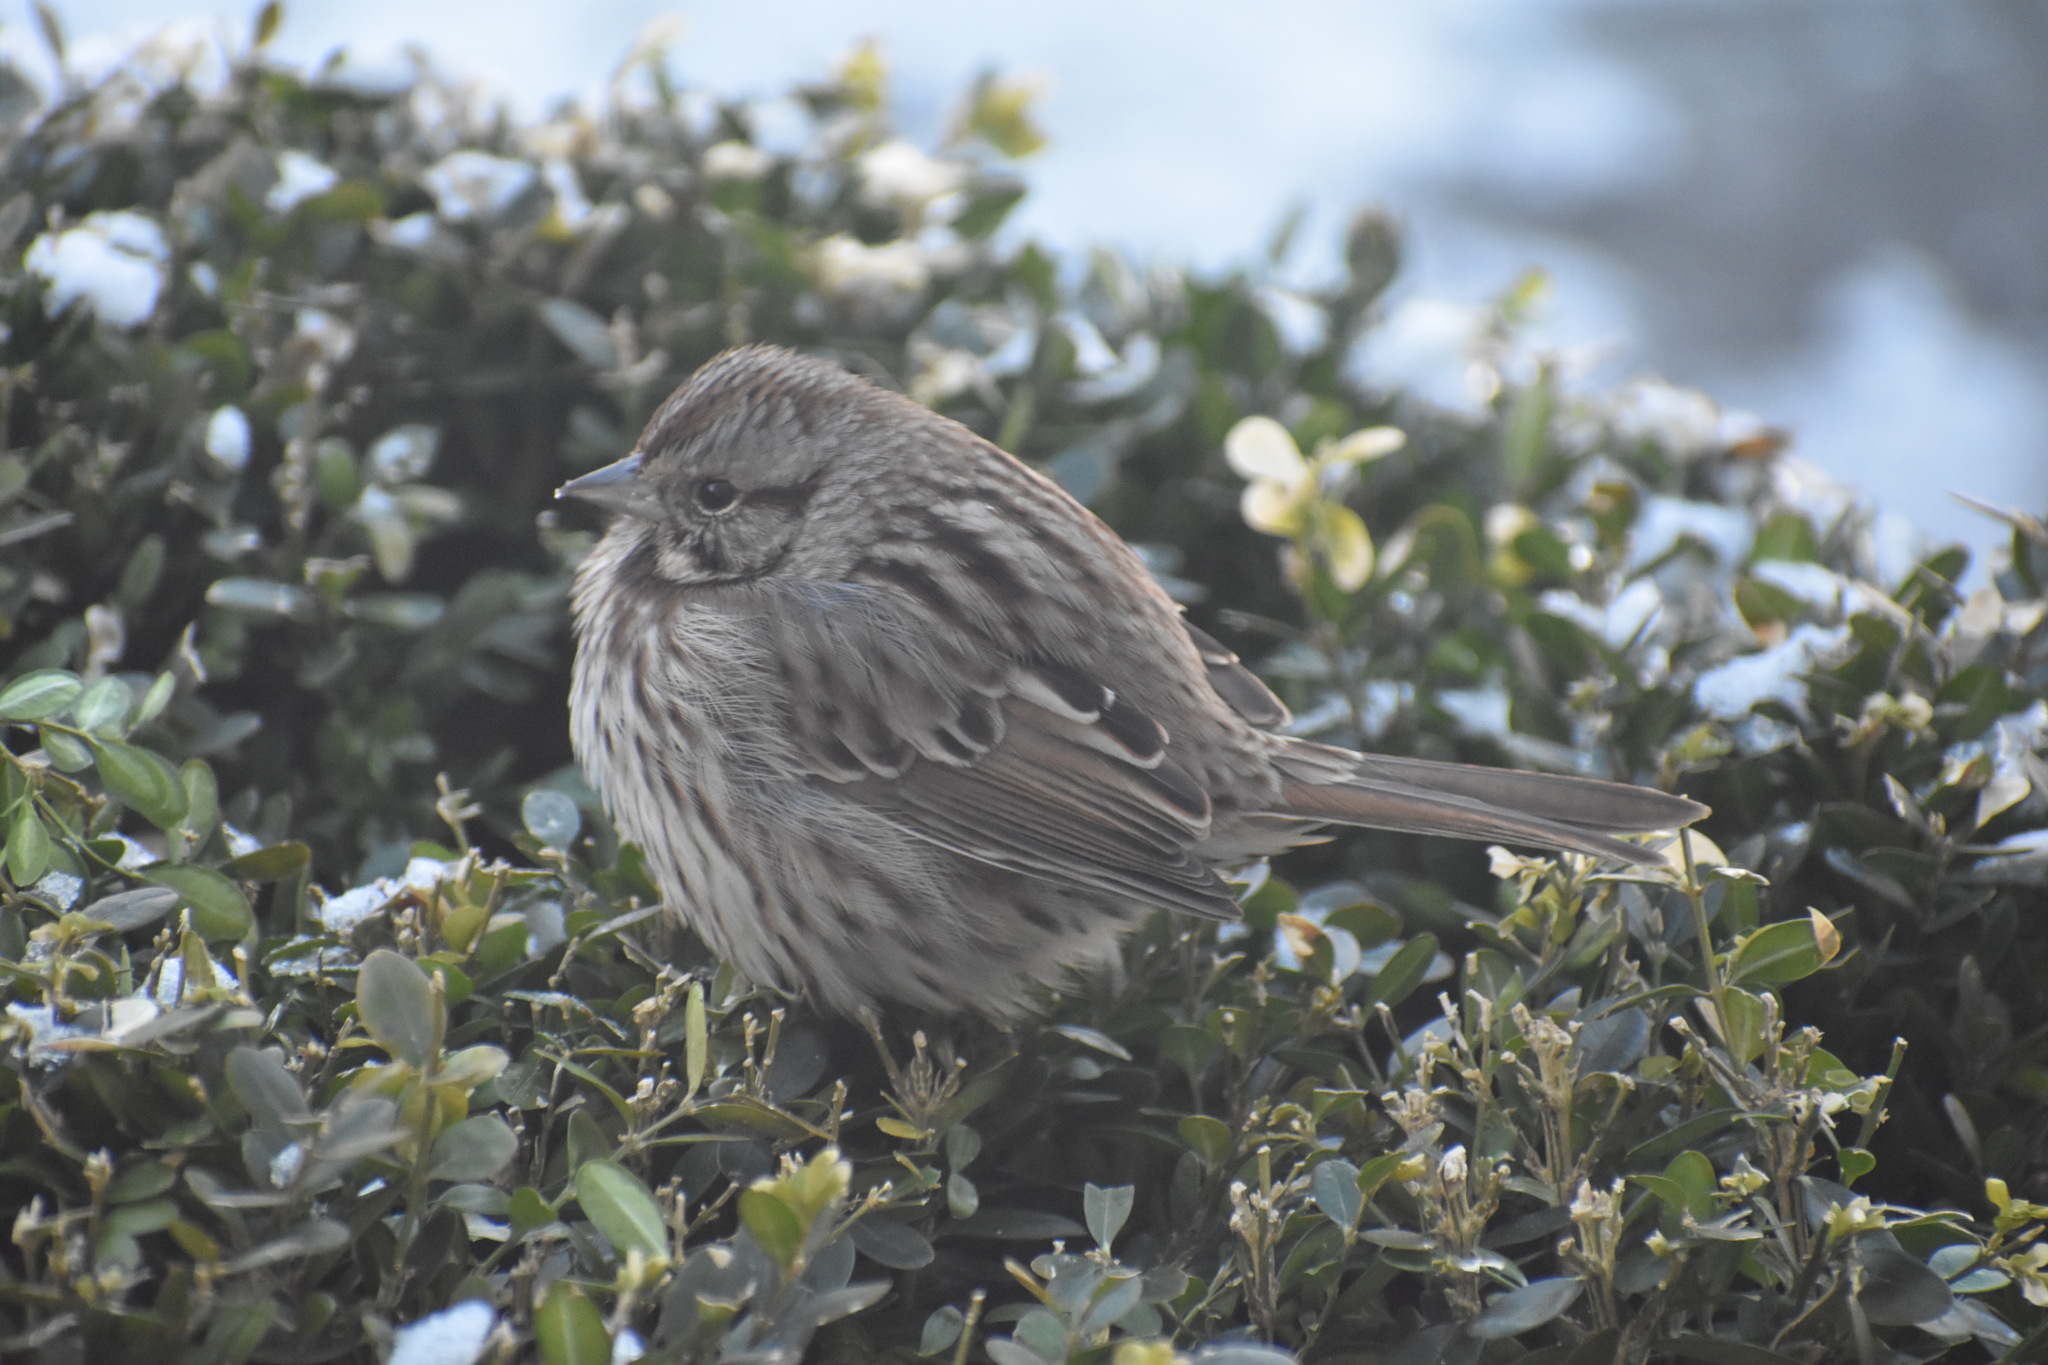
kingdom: Animalia
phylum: Chordata
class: Aves
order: Passeriformes
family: Passerellidae
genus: Melospiza
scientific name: Melospiza melodia
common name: Song sparrow
